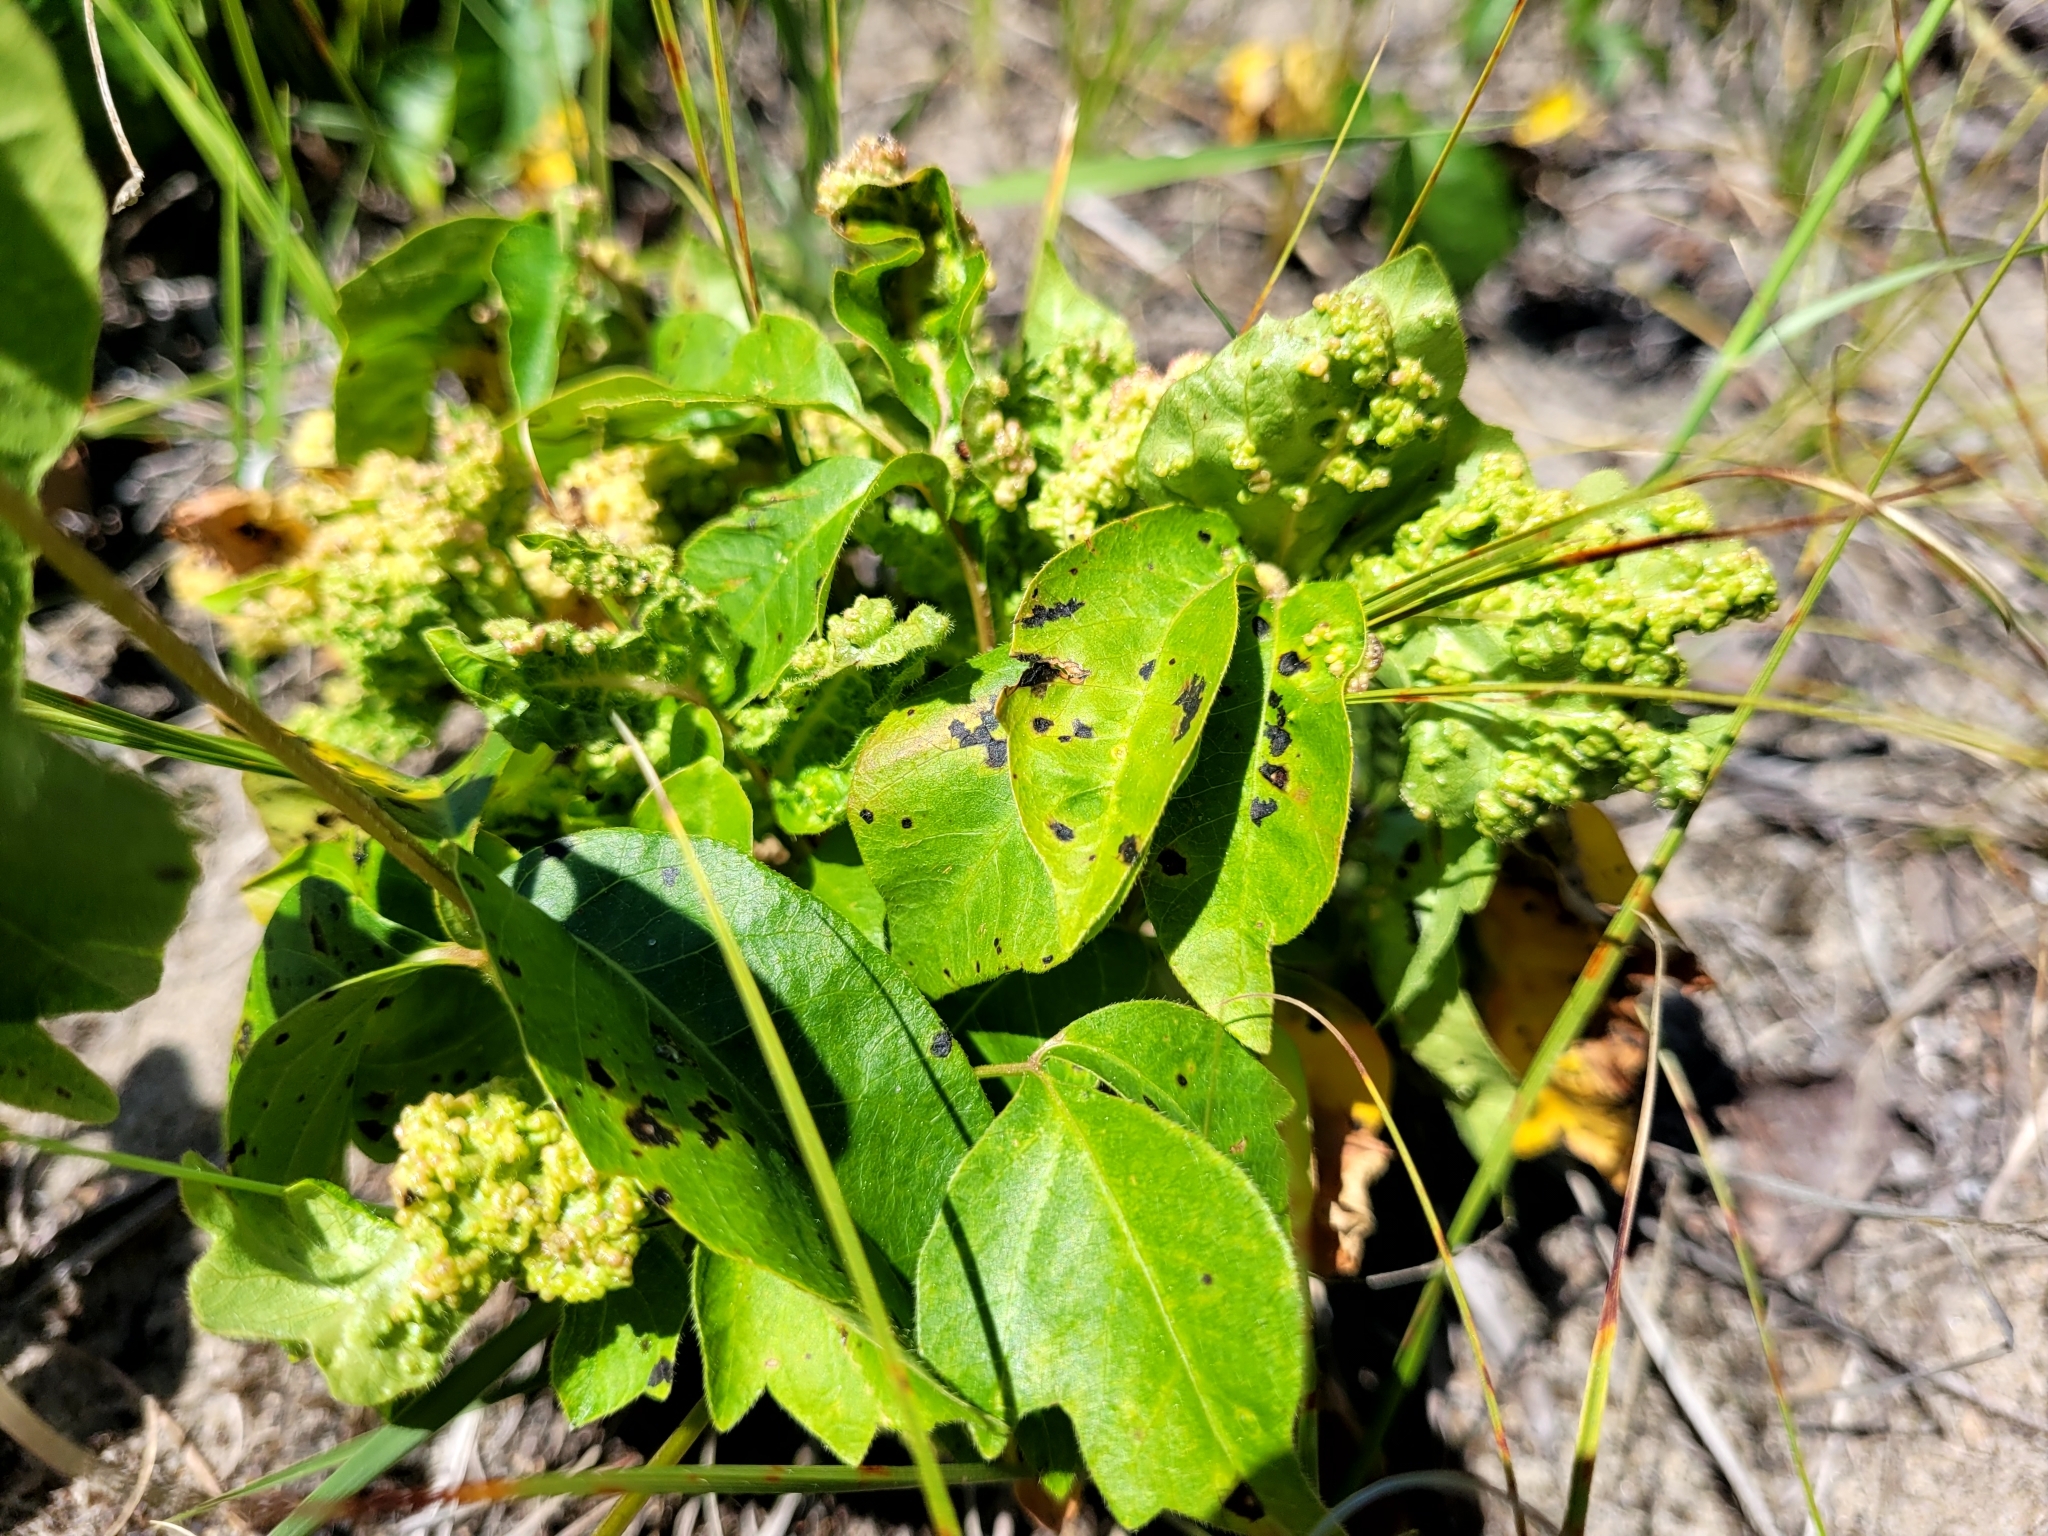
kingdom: Animalia
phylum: Arthropoda
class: Arachnida
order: Trombidiformes
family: Eriophyidae
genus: Aculops
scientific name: Aculops
